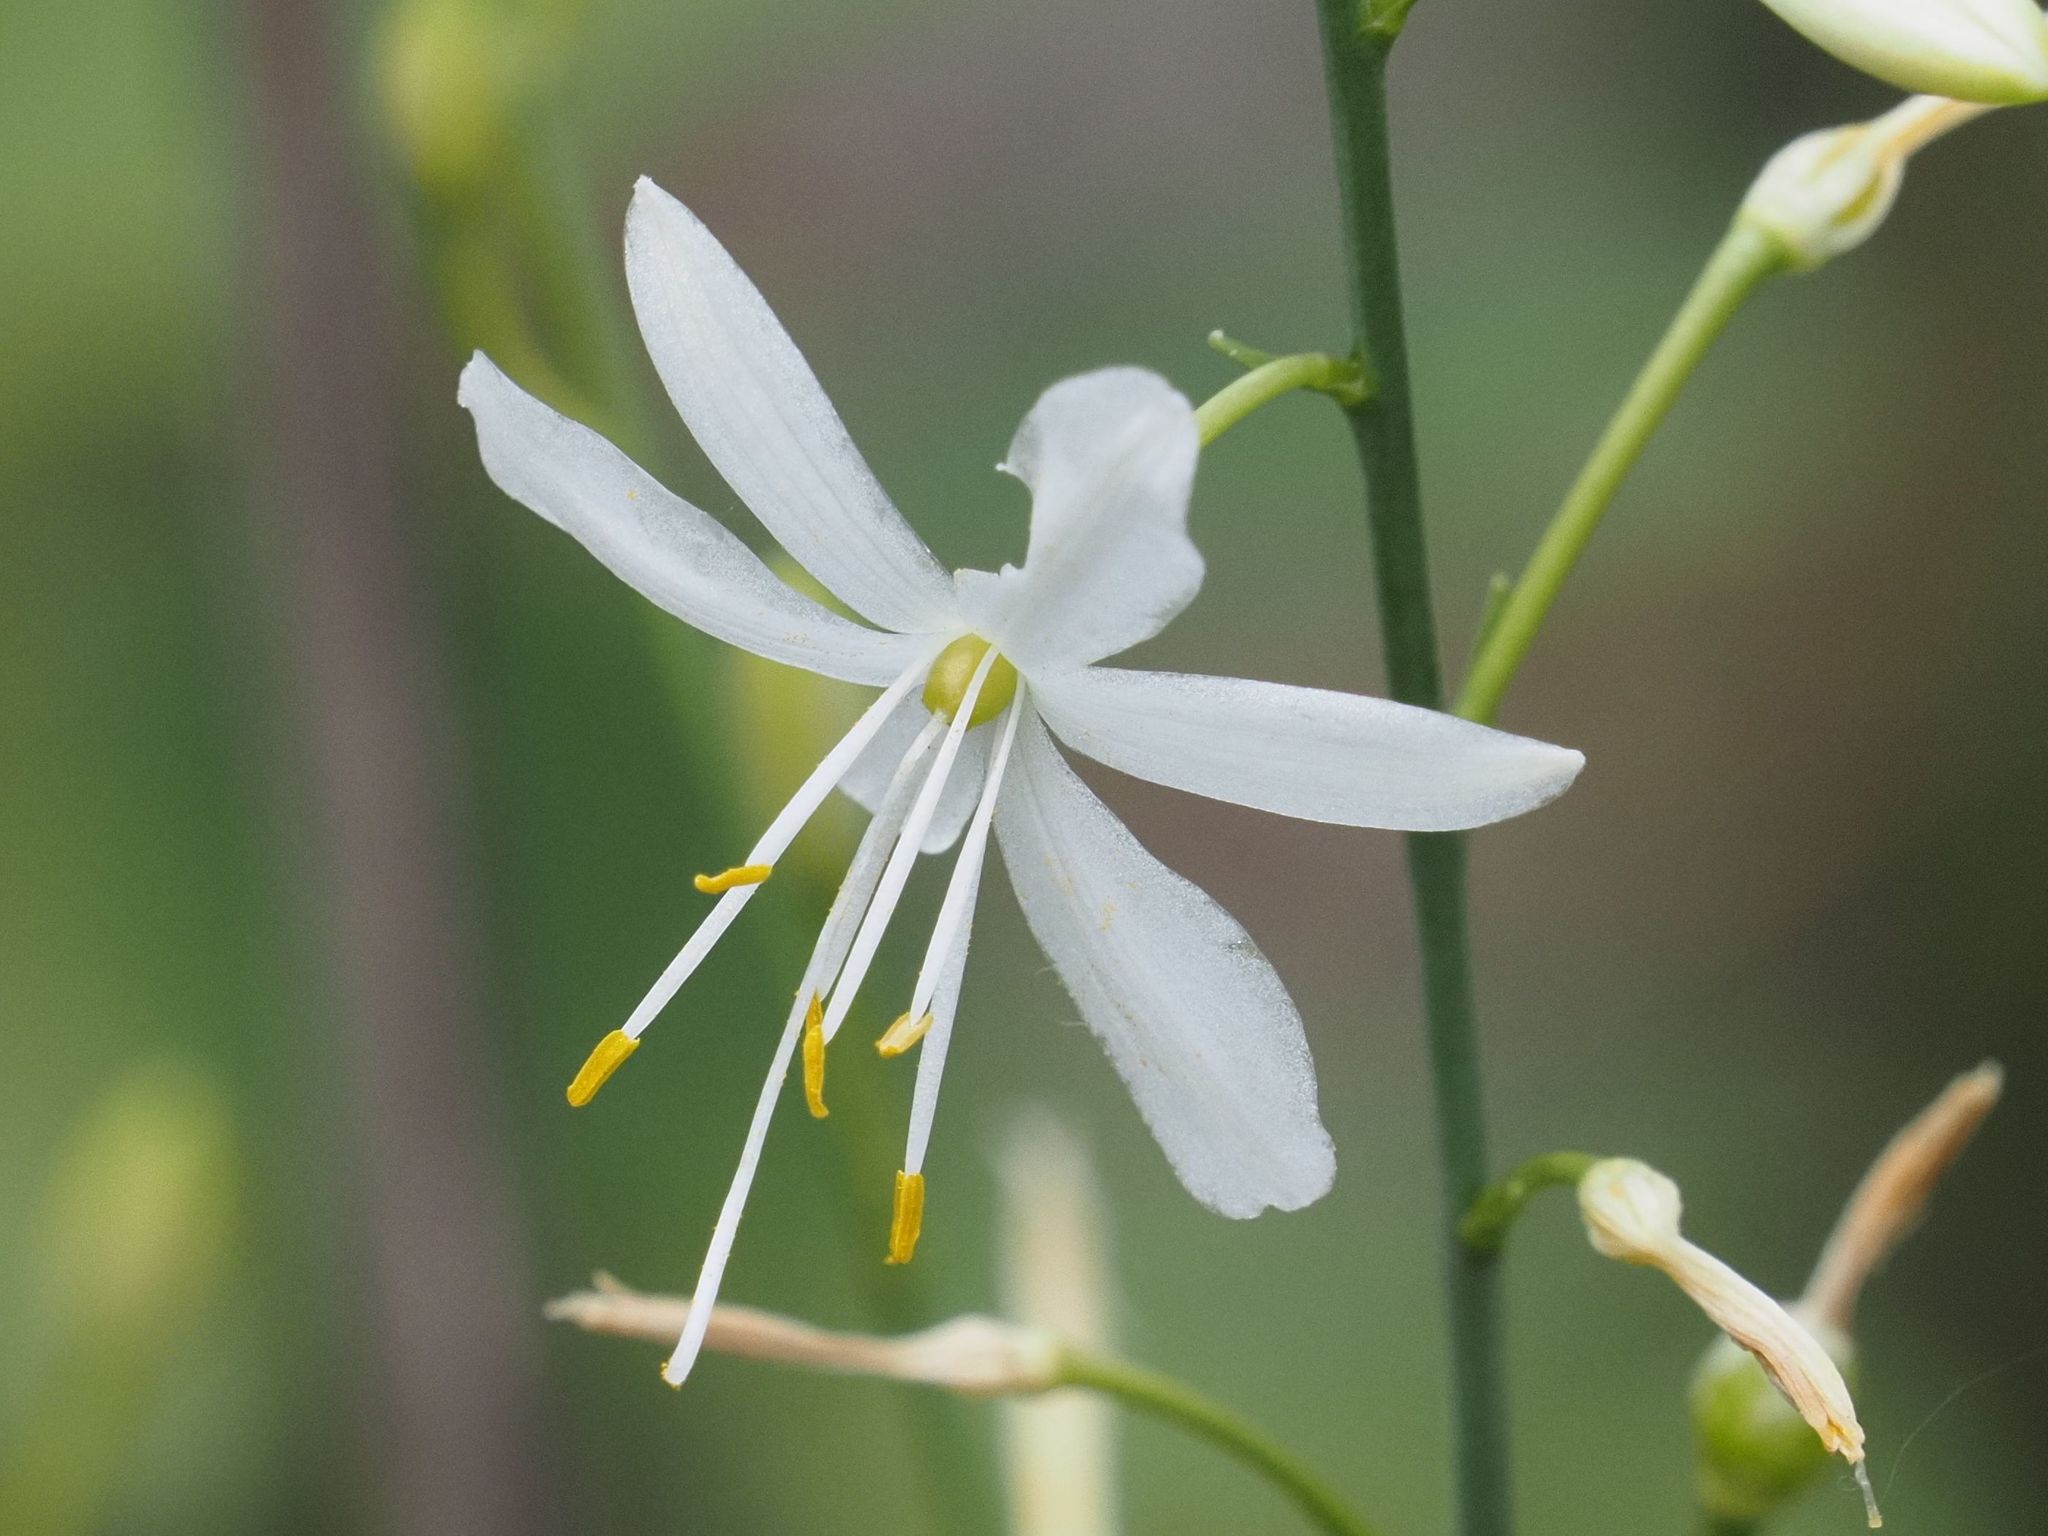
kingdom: Plantae
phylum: Tracheophyta
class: Liliopsida
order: Asparagales
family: Asparagaceae
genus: Anthericum
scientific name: Anthericum ramosum
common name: Branched st. bernard's-lily
